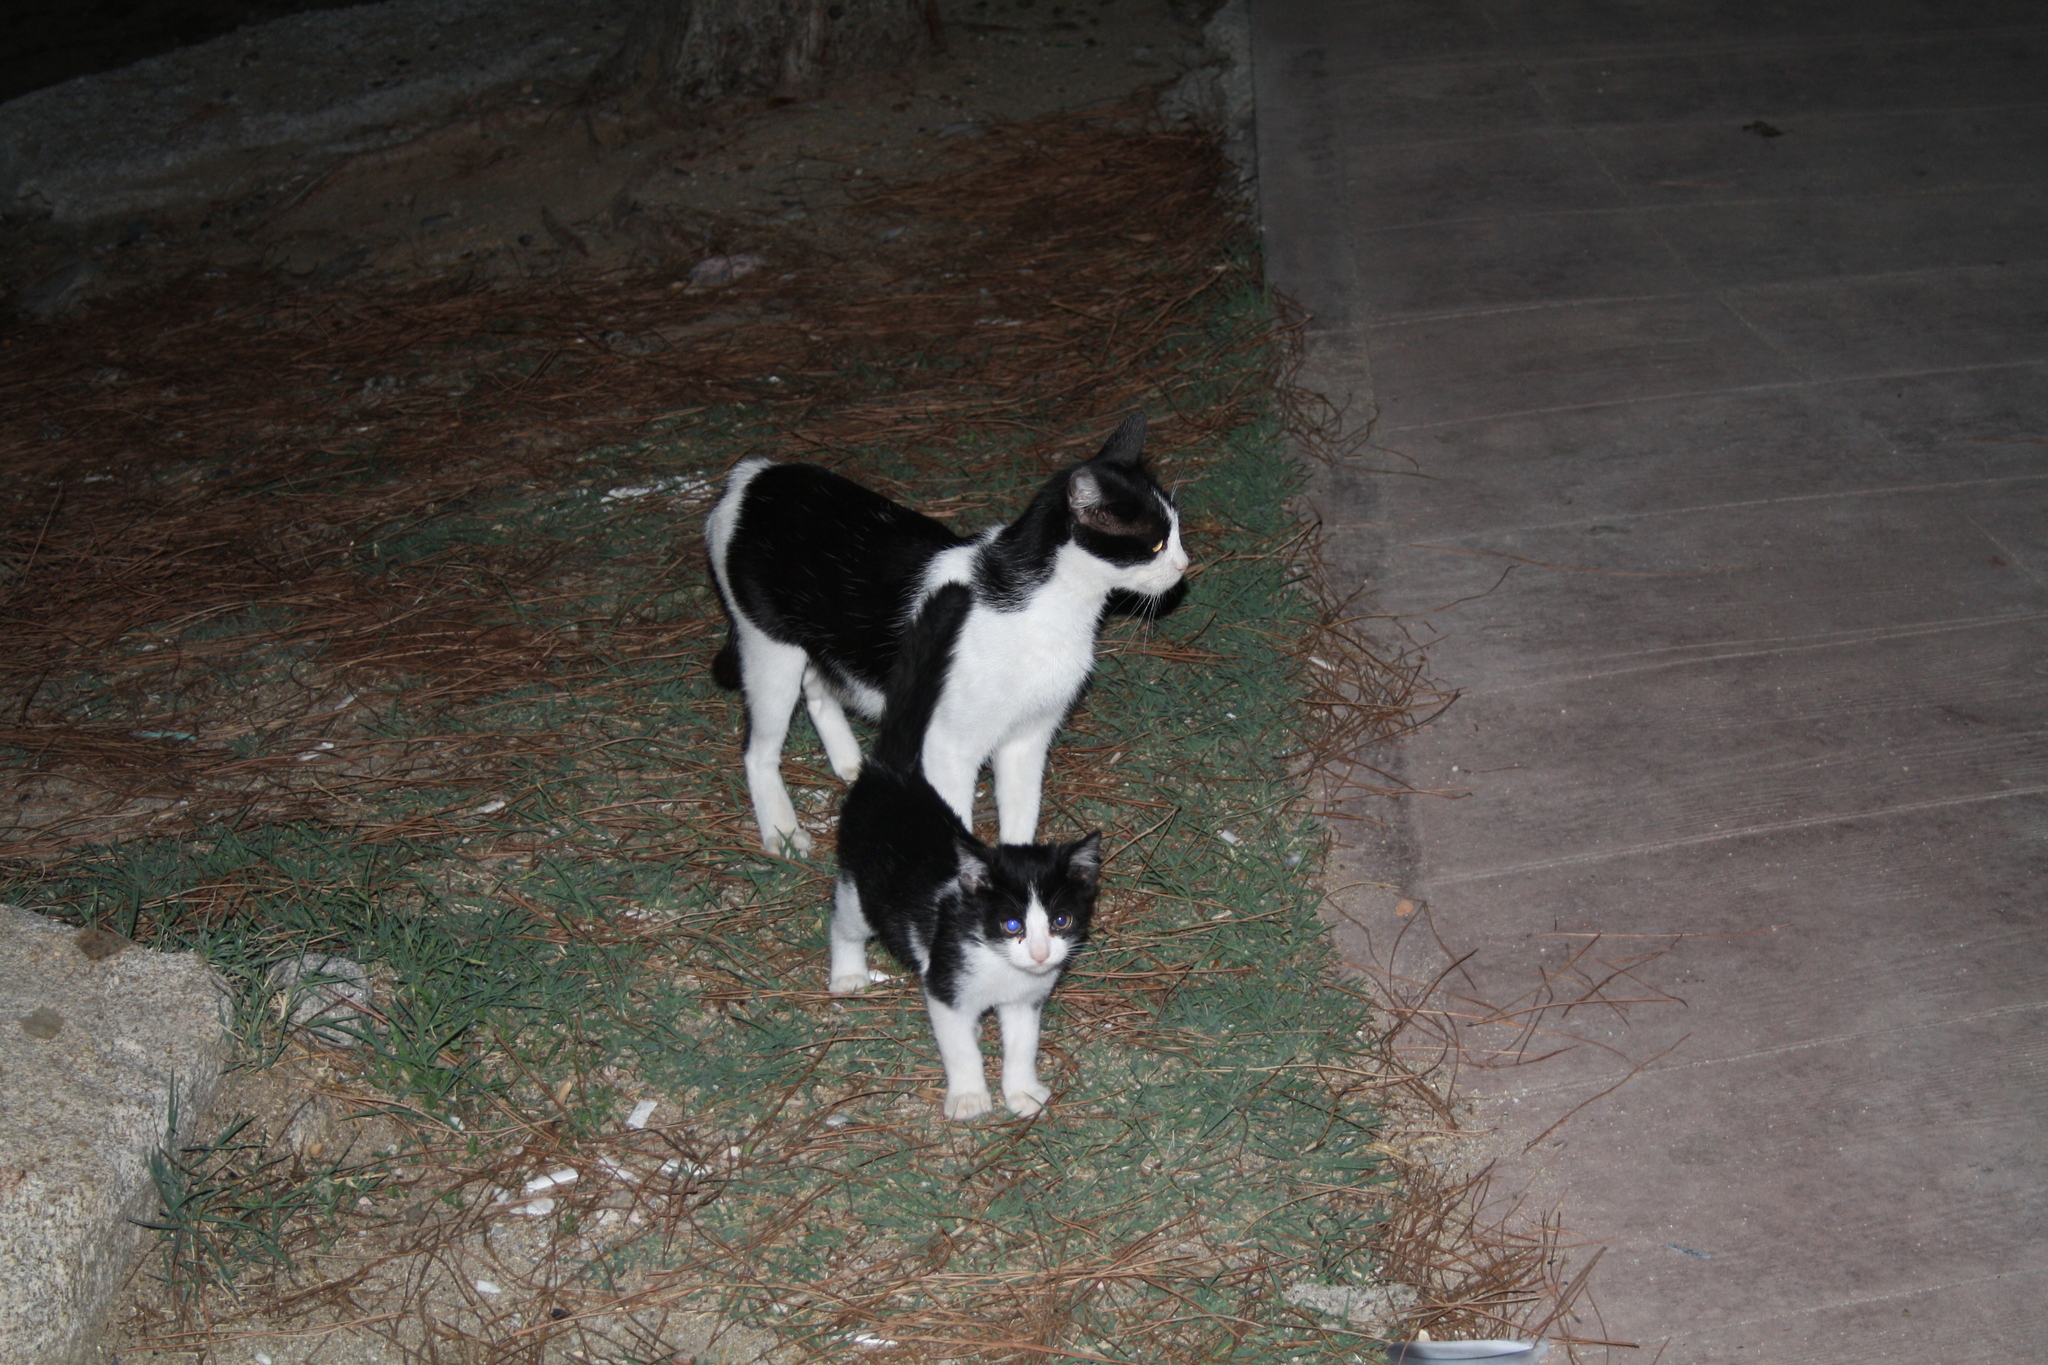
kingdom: Animalia
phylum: Chordata
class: Mammalia
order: Carnivora
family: Felidae
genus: Felis
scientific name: Felis catus
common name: Domestic cat
